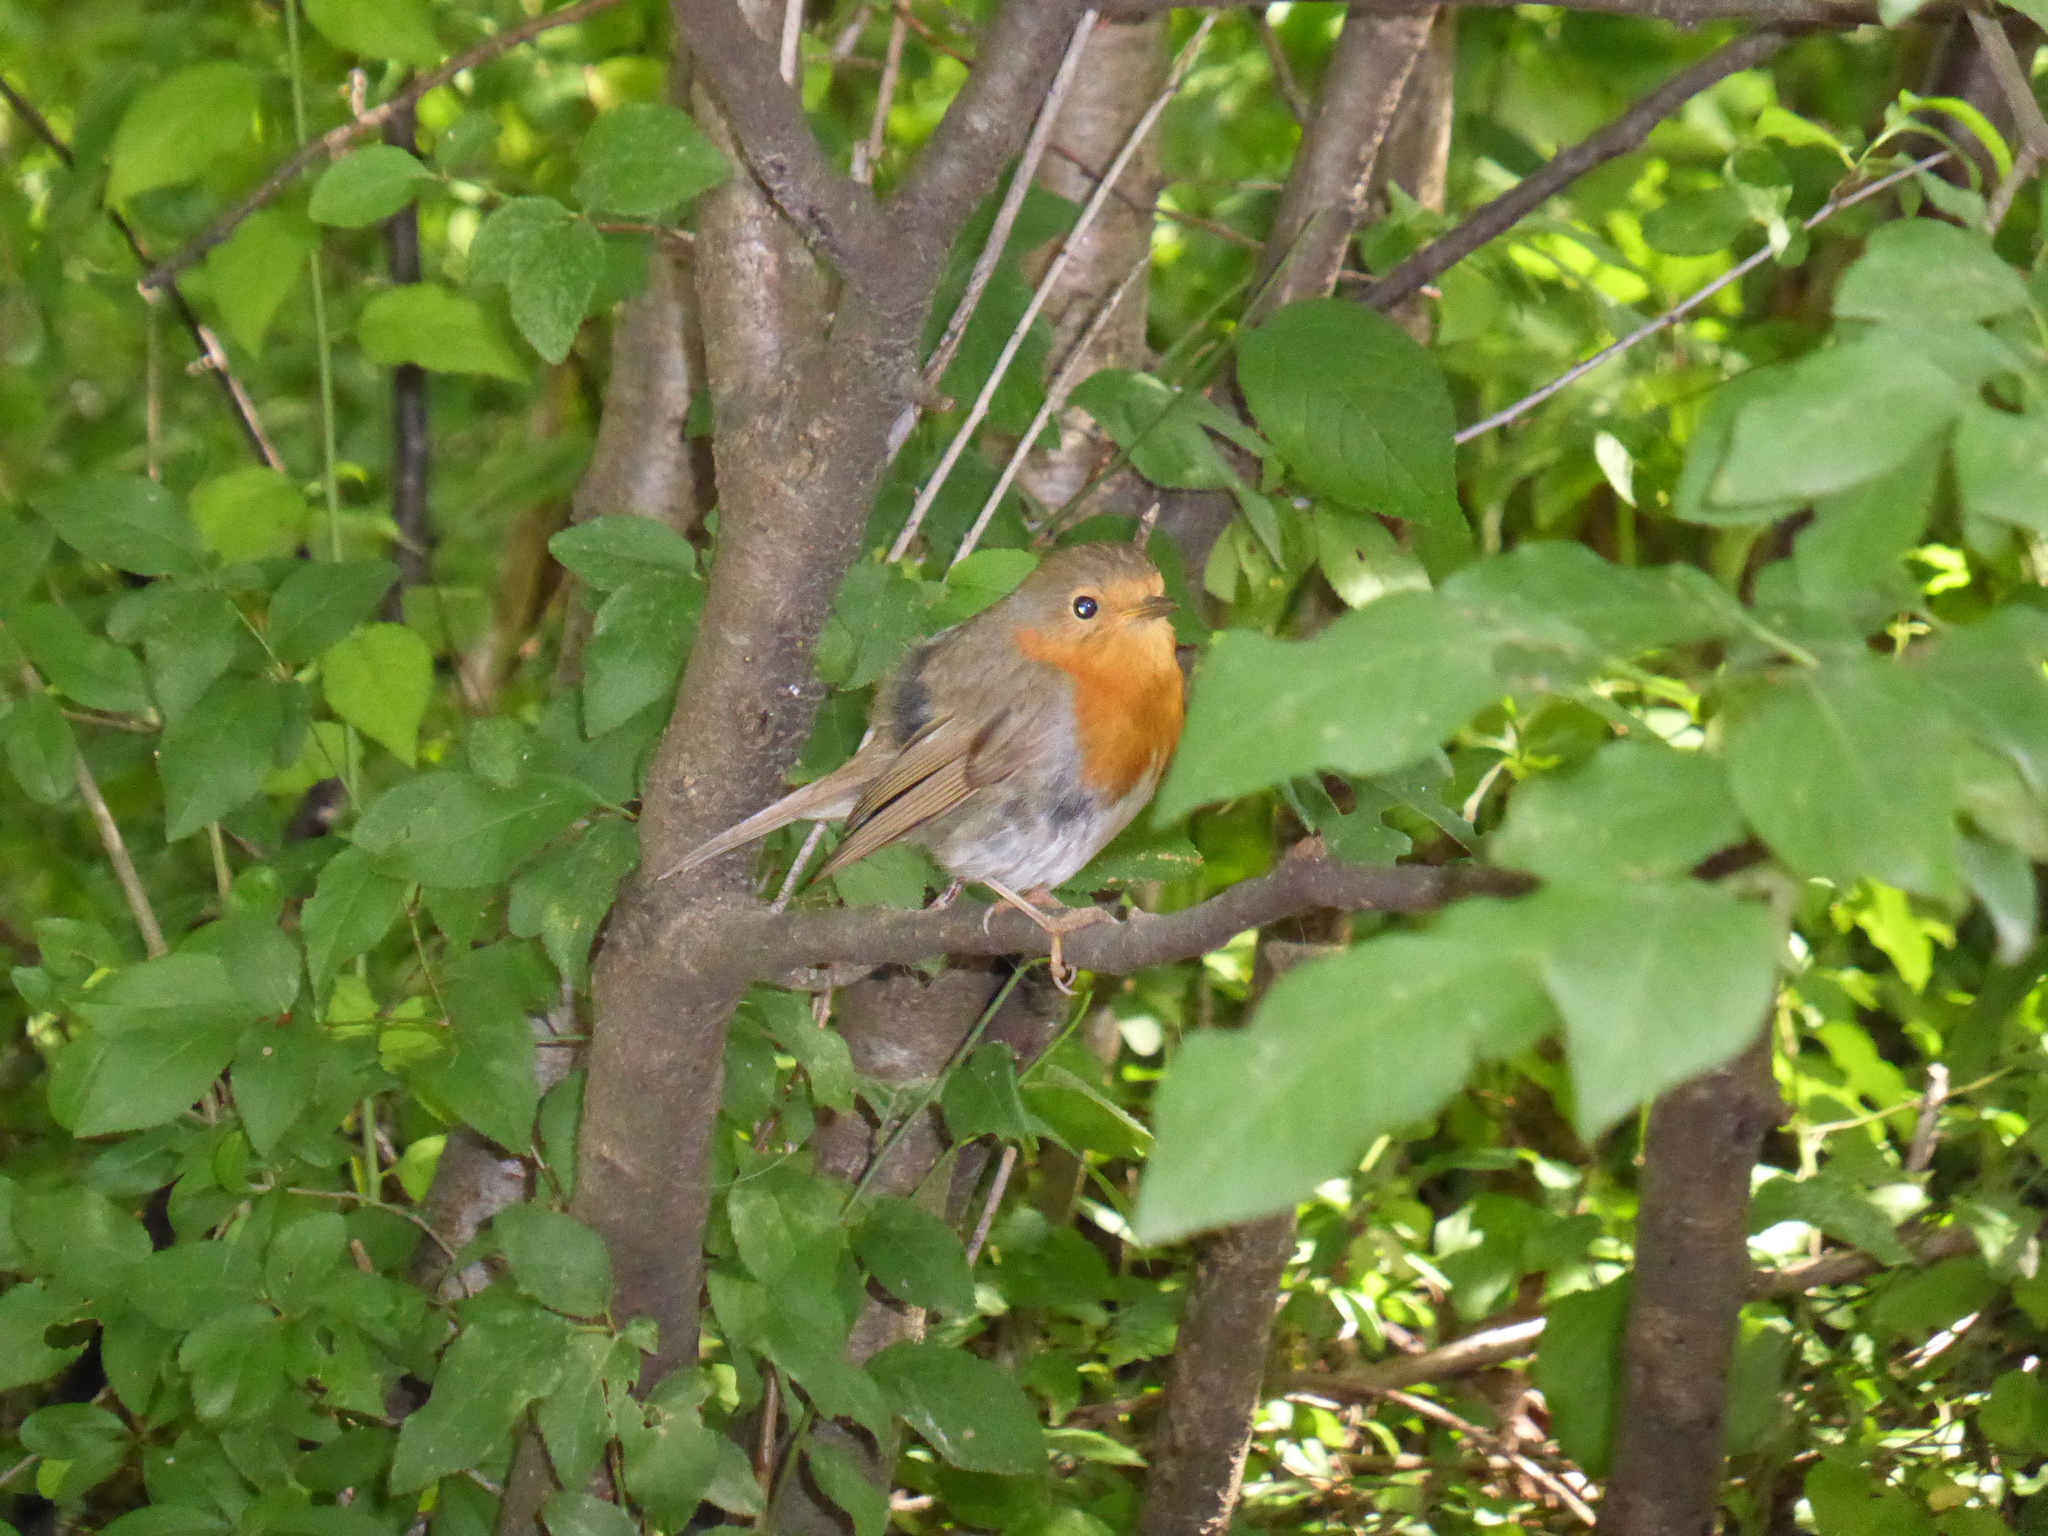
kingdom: Animalia
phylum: Chordata
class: Aves
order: Passeriformes
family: Muscicapidae
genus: Erithacus
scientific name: Erithacus rubecula
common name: European robin
